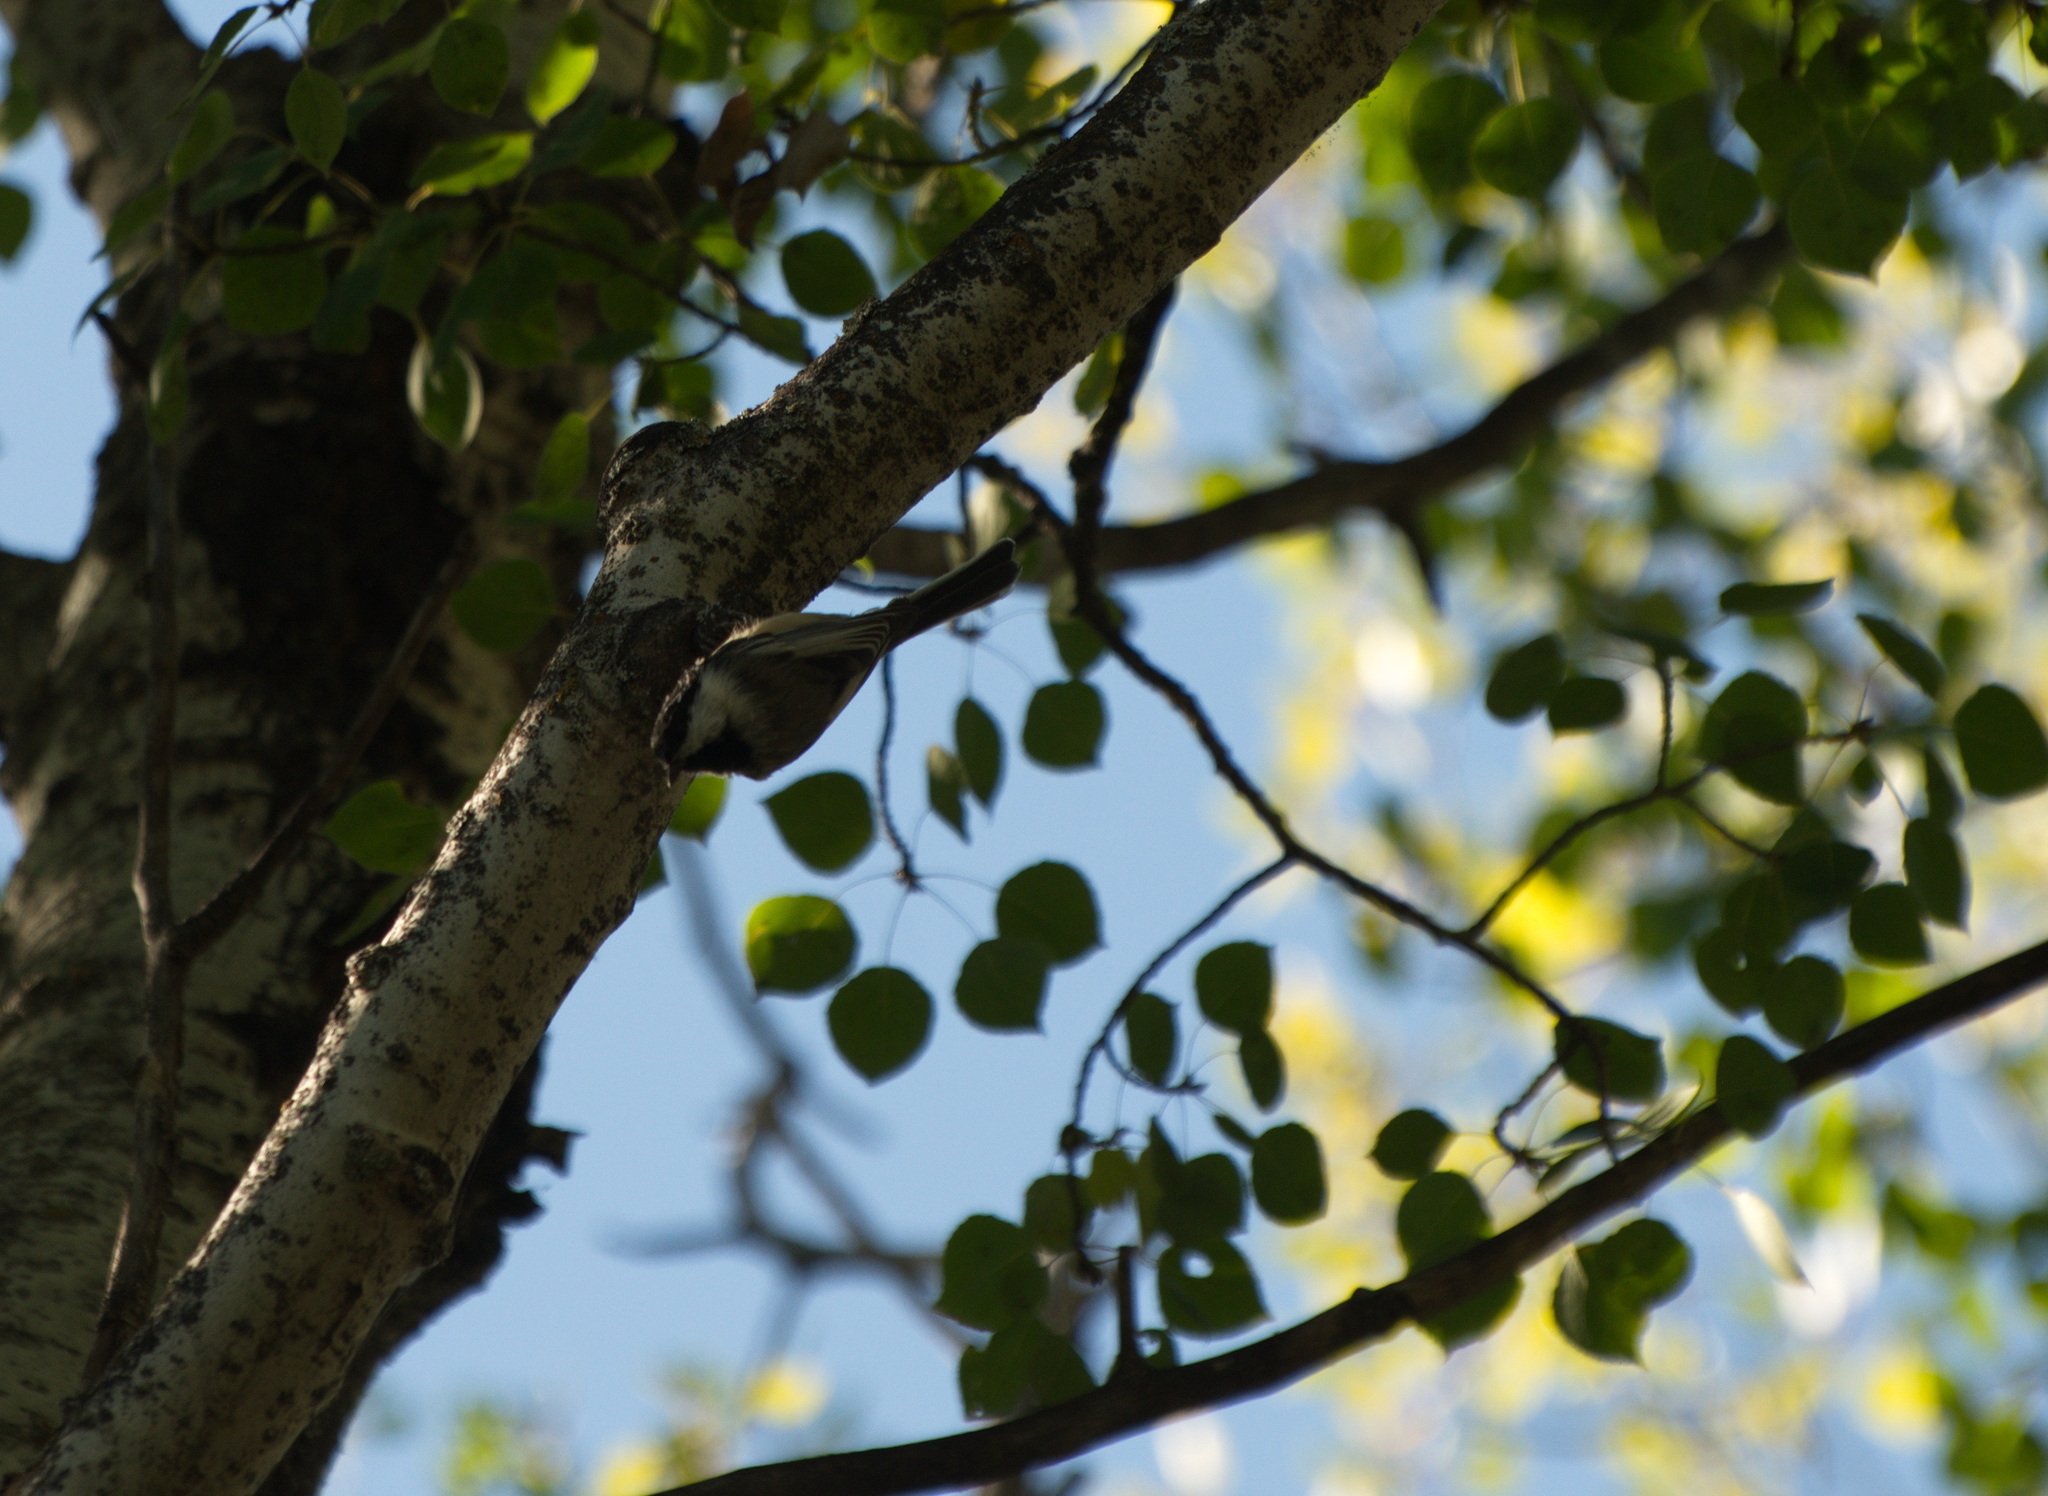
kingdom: Animalia
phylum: Chordata
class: Aves
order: Passeriformes
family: Paridae
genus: Poecile
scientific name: Poecile atricapillus
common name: Black-capped chickadee
